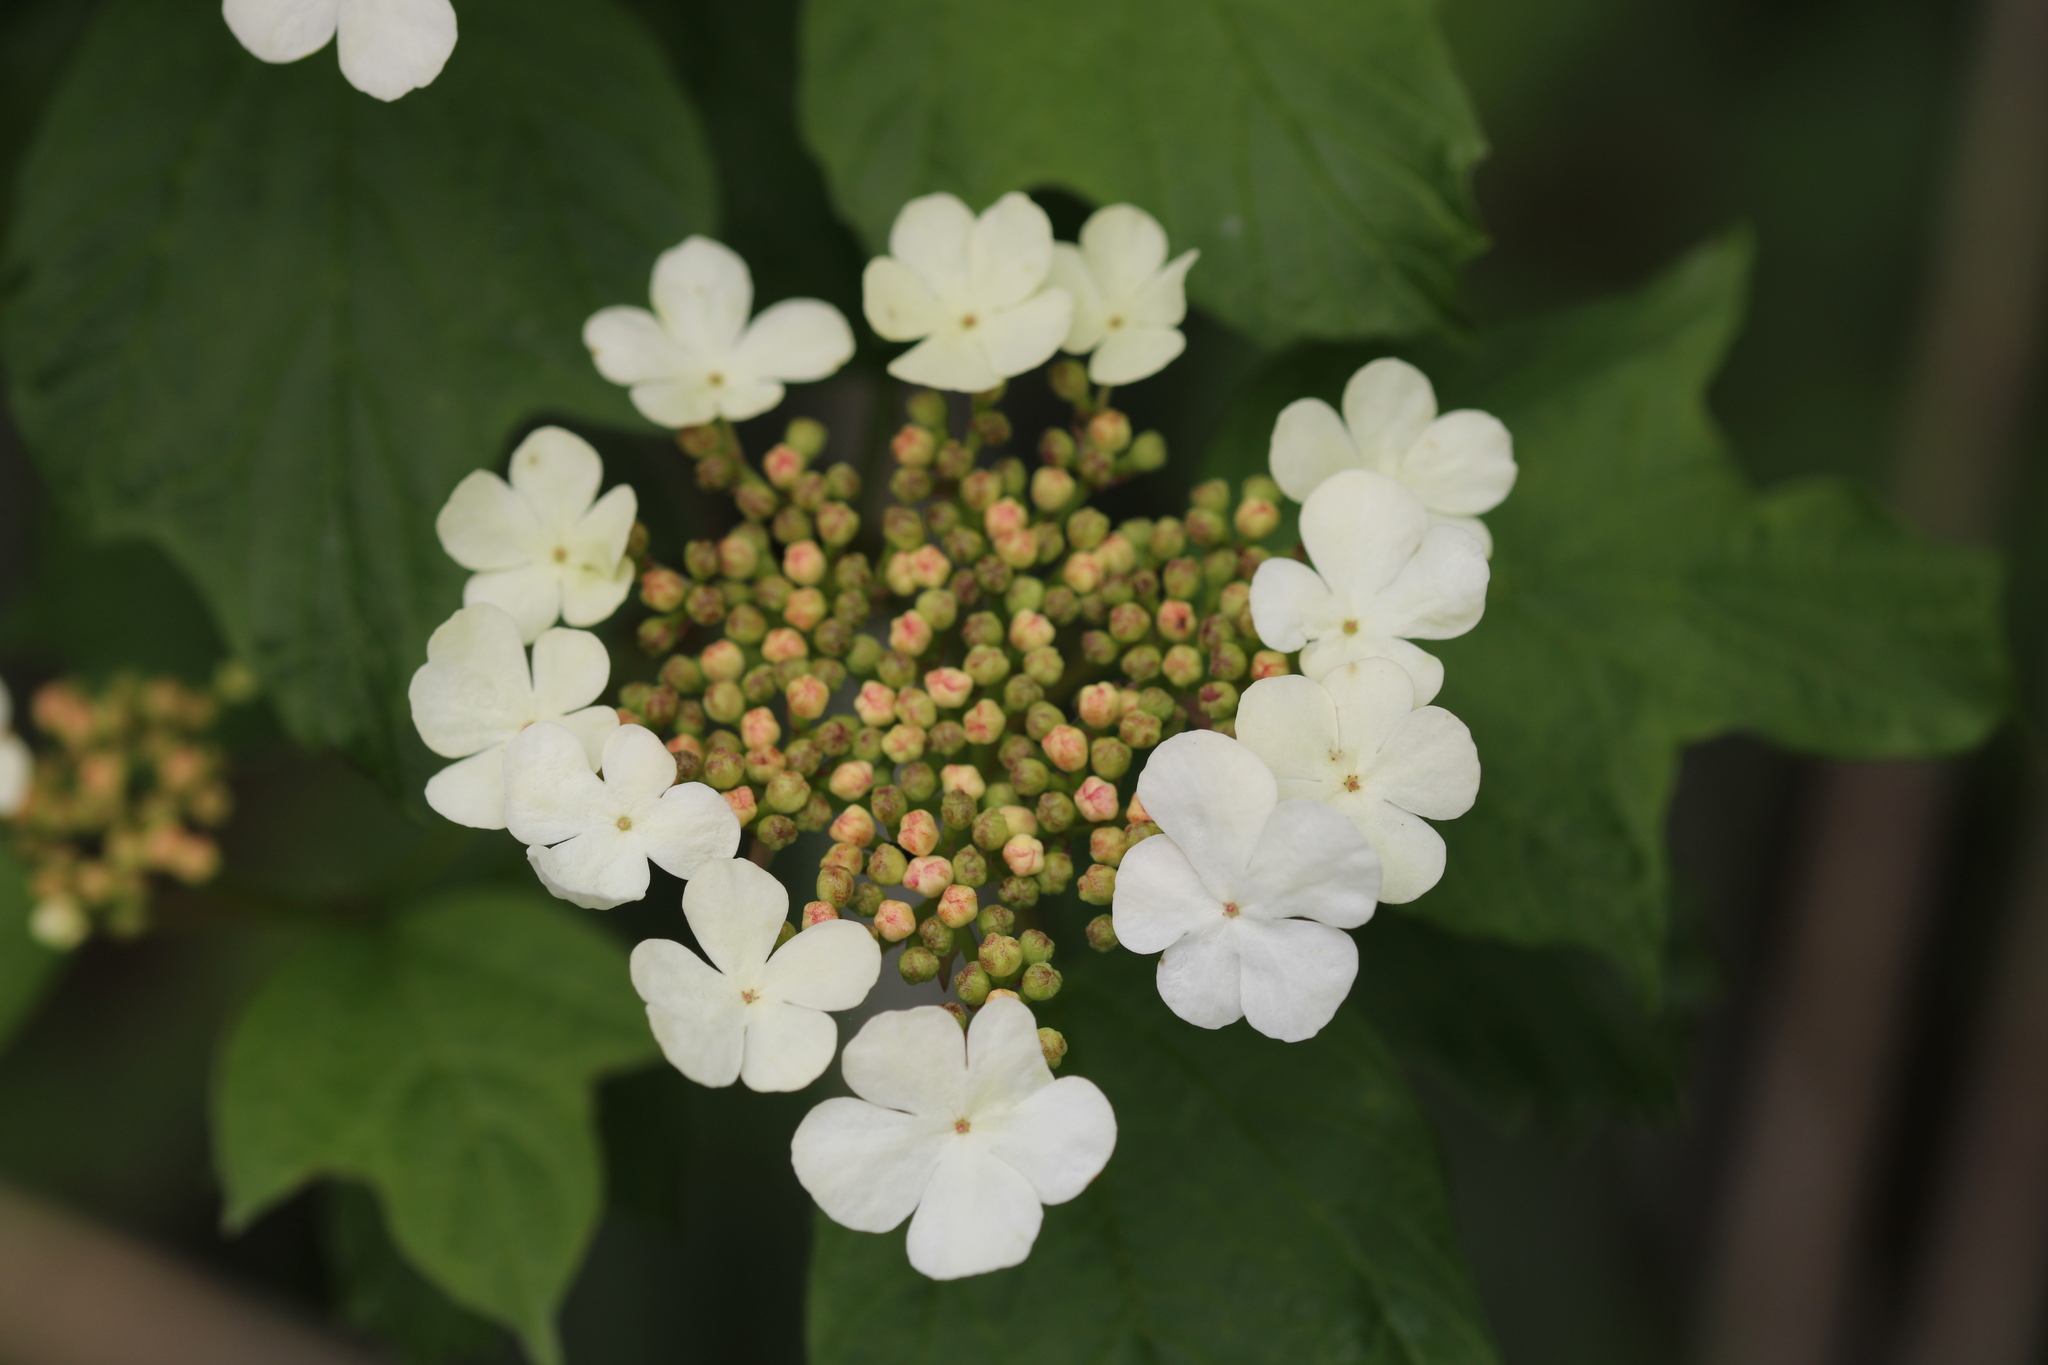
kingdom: Plantae
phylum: Tracheophyta
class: Magnoliopsida
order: Dipsacales
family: Viburnaceae
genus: Viburnum
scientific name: Viburnum opulus
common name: Guelder-rose
